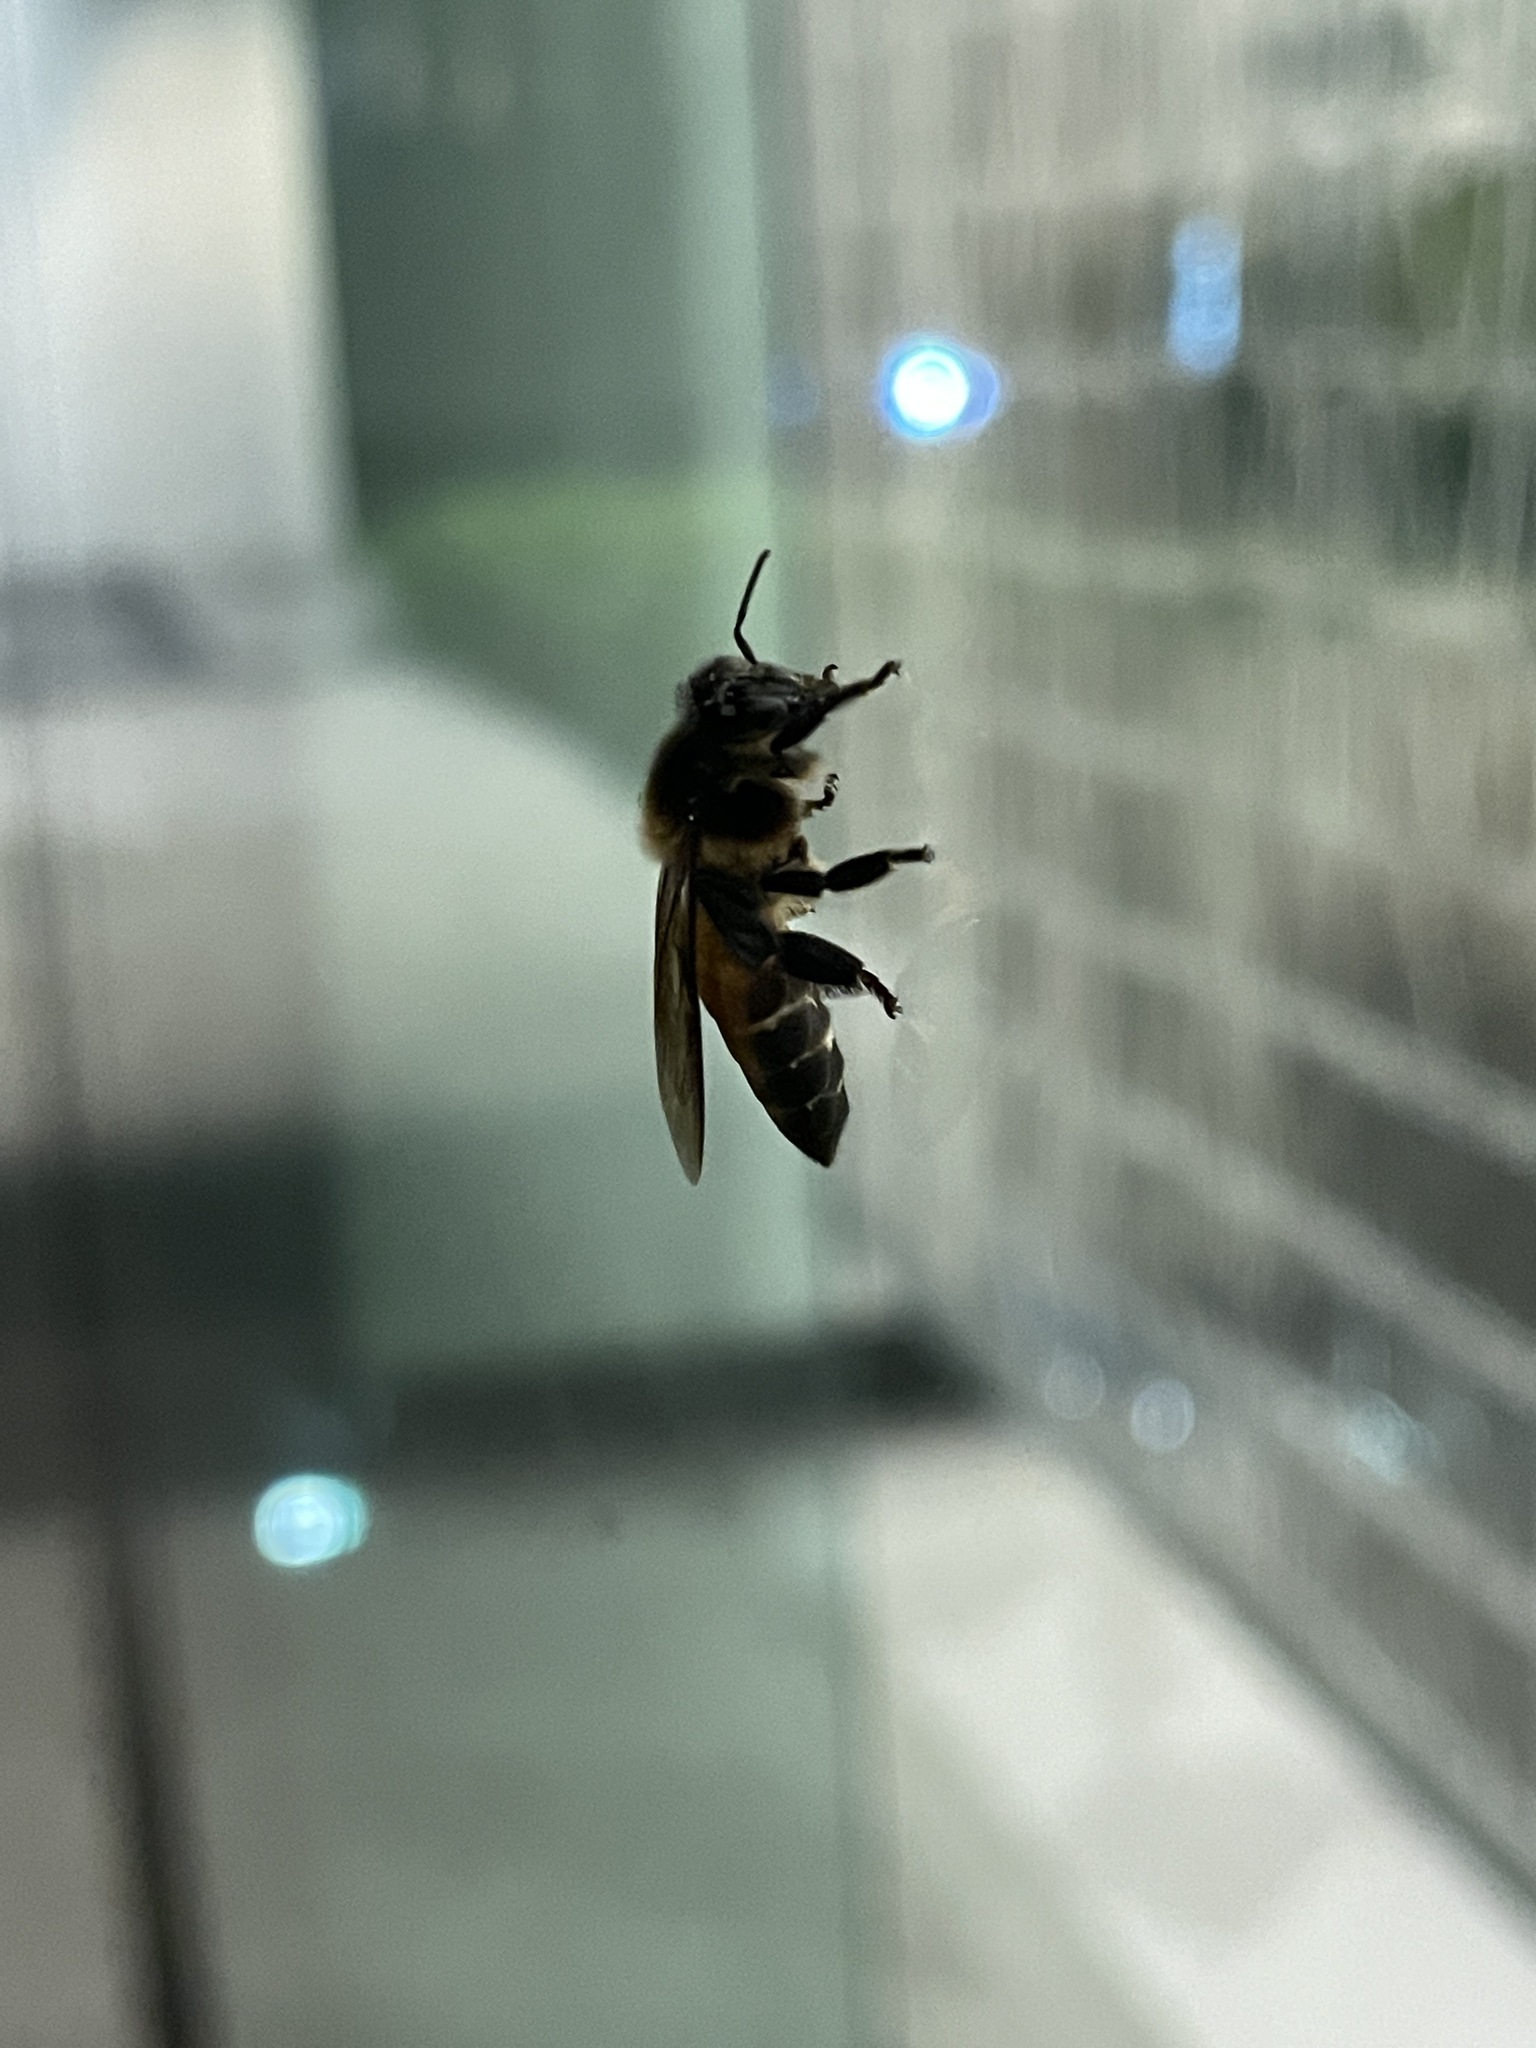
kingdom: Animalia
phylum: Arthropoda
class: Insecta
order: Hymenoptera
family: Apidae
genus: Apis
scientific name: Apis dorsata
